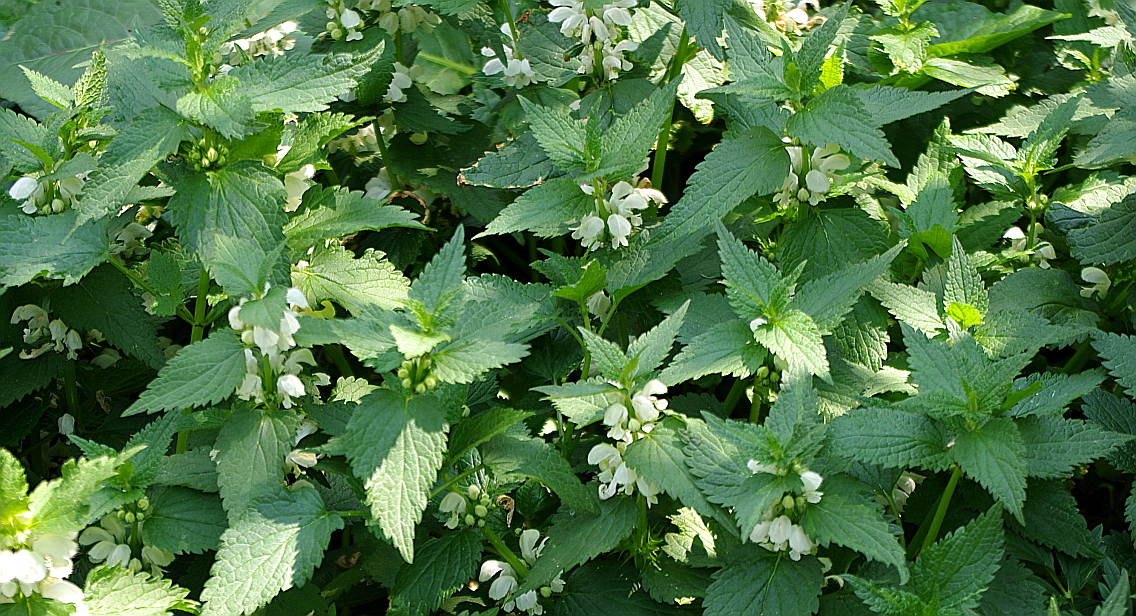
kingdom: Plantae
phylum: Tracheophyta
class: Magnoliopsida
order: Lamiales
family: Lamiaceae
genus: Lamium
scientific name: Lamium album
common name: White dead-nettle
